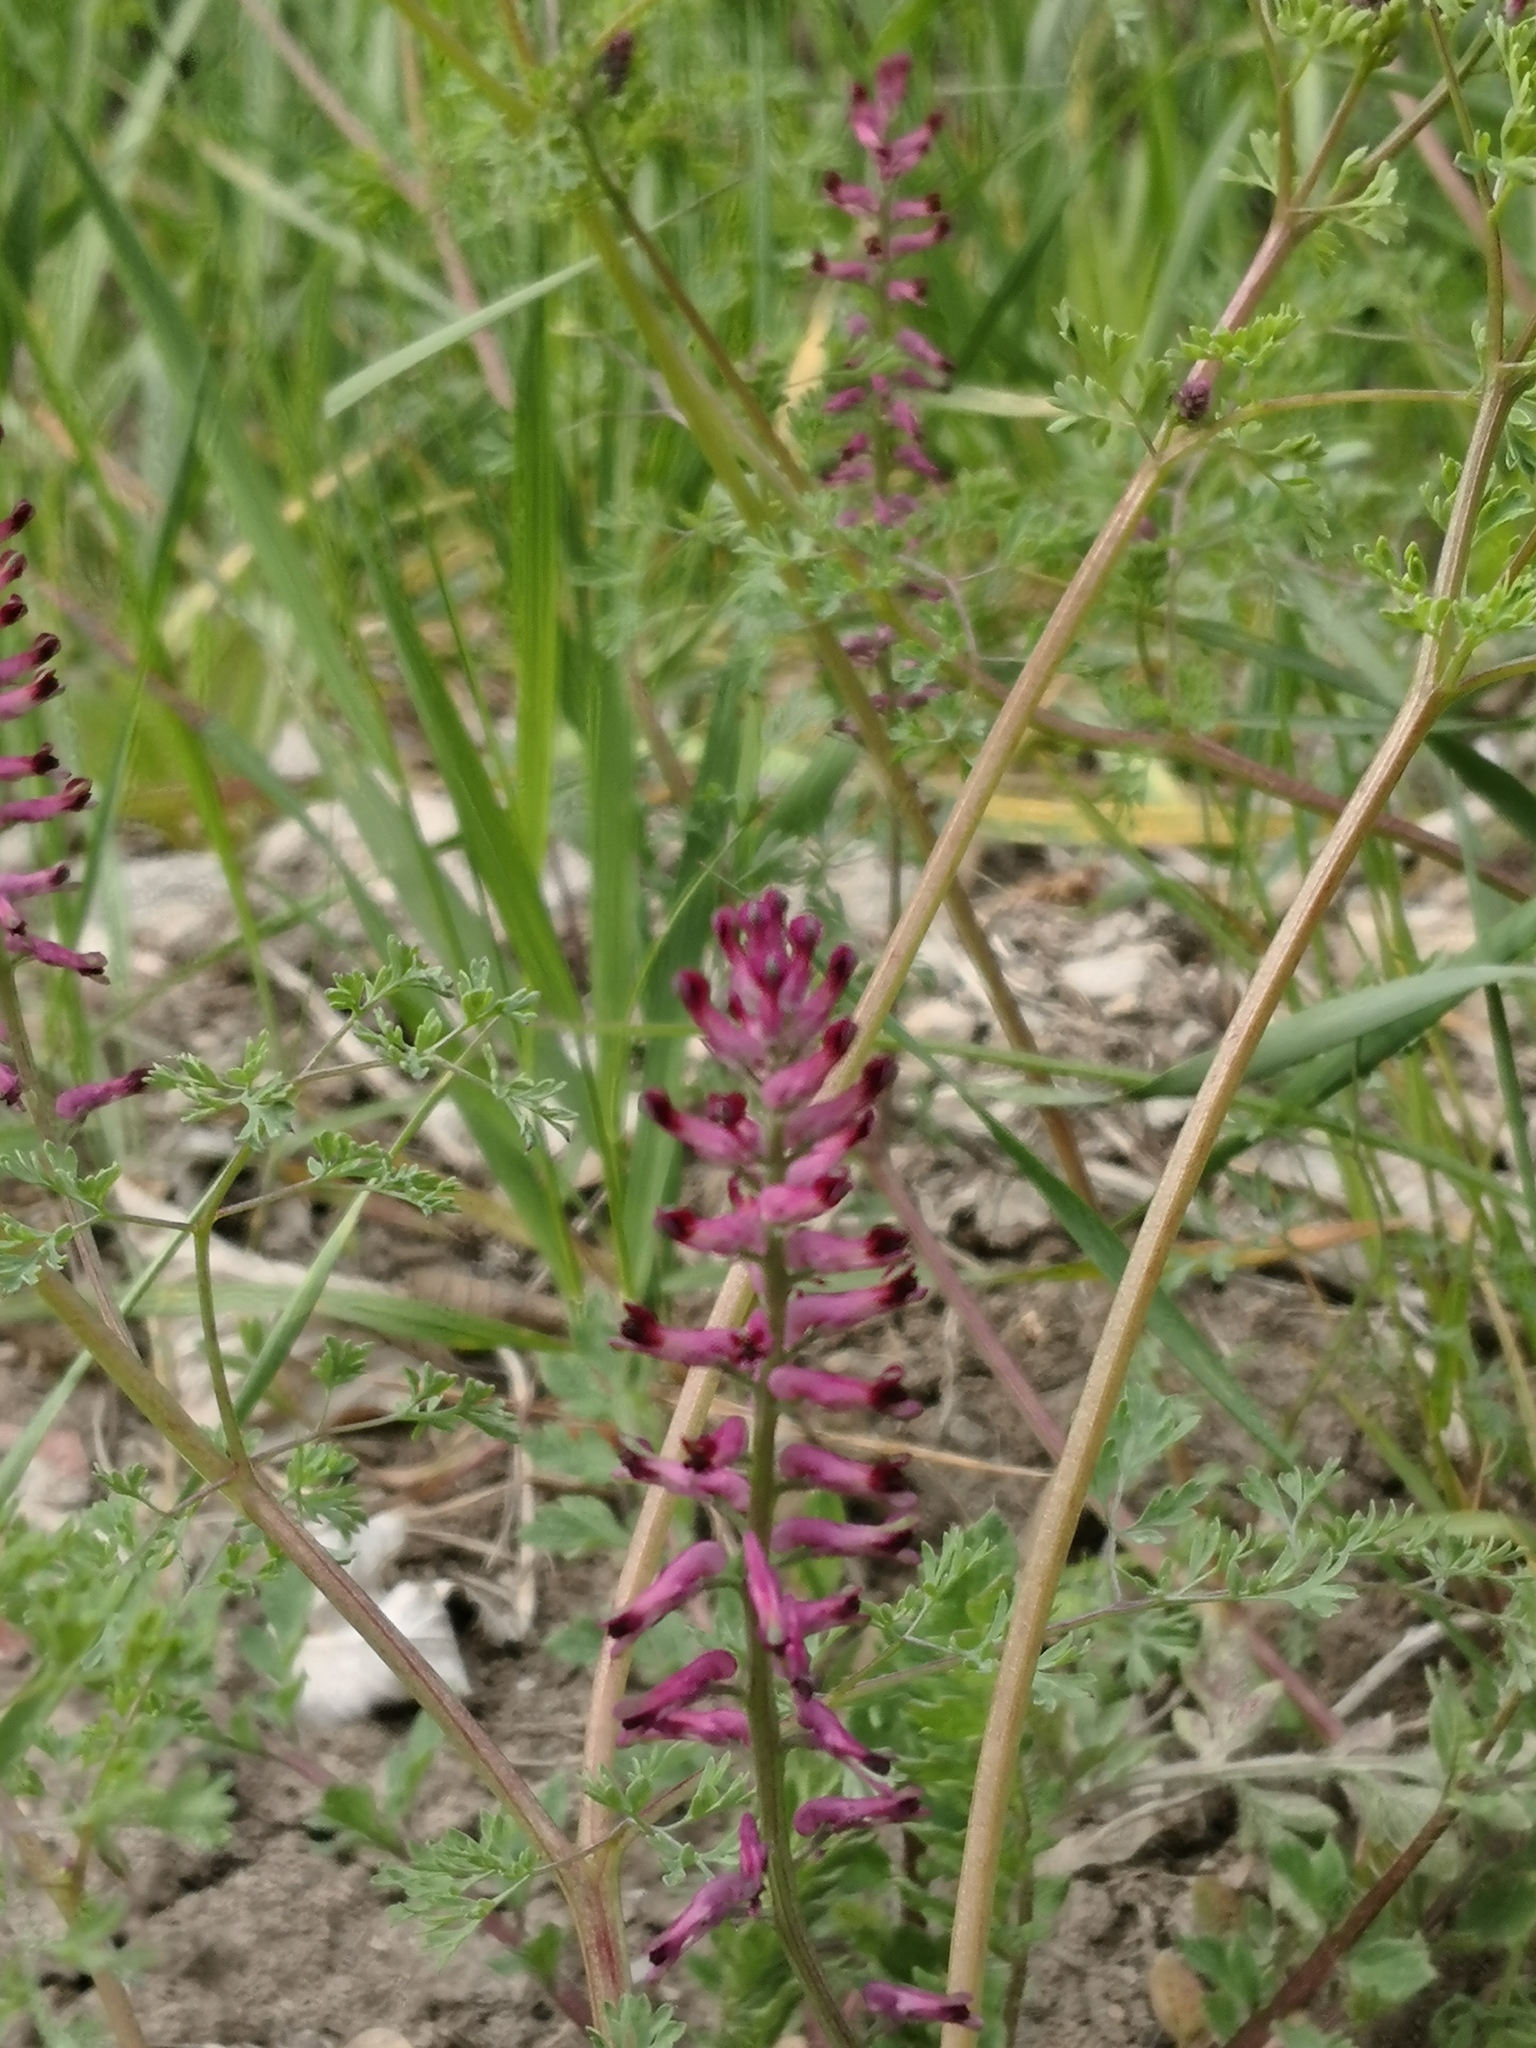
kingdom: Plantae
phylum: Tracheophyta
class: Magnoliopsida
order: Ranunculales
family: Papaveraceae
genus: Fumaria
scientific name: Fumaria officinalis
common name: Common fumitory
